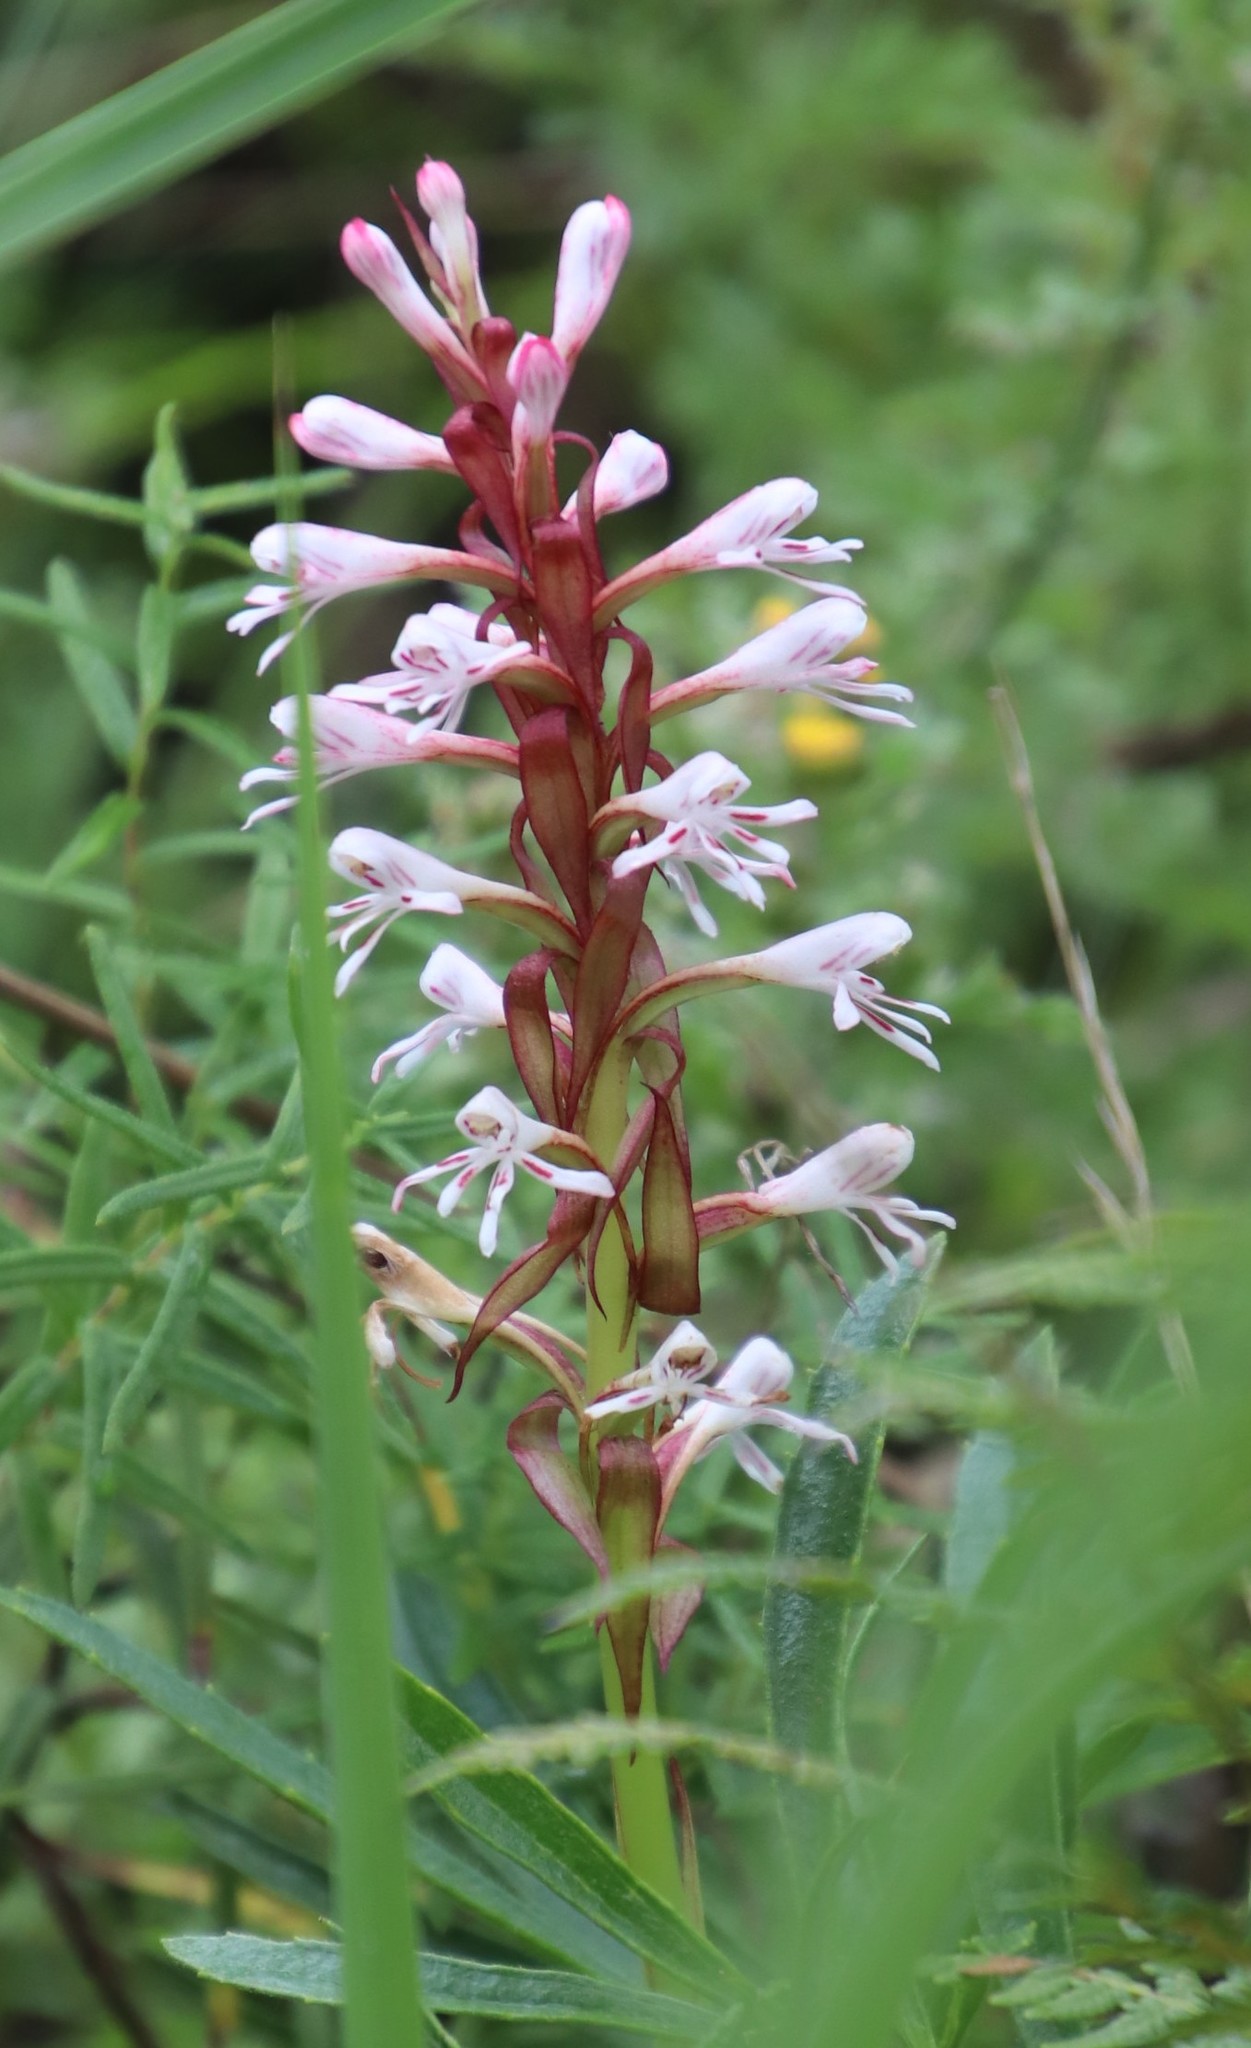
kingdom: Plantae
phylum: Tracheophyta
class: Liliopsida
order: Asparagales
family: Orchidaceae
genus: Satyrium
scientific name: Satyrium macrophyllum
